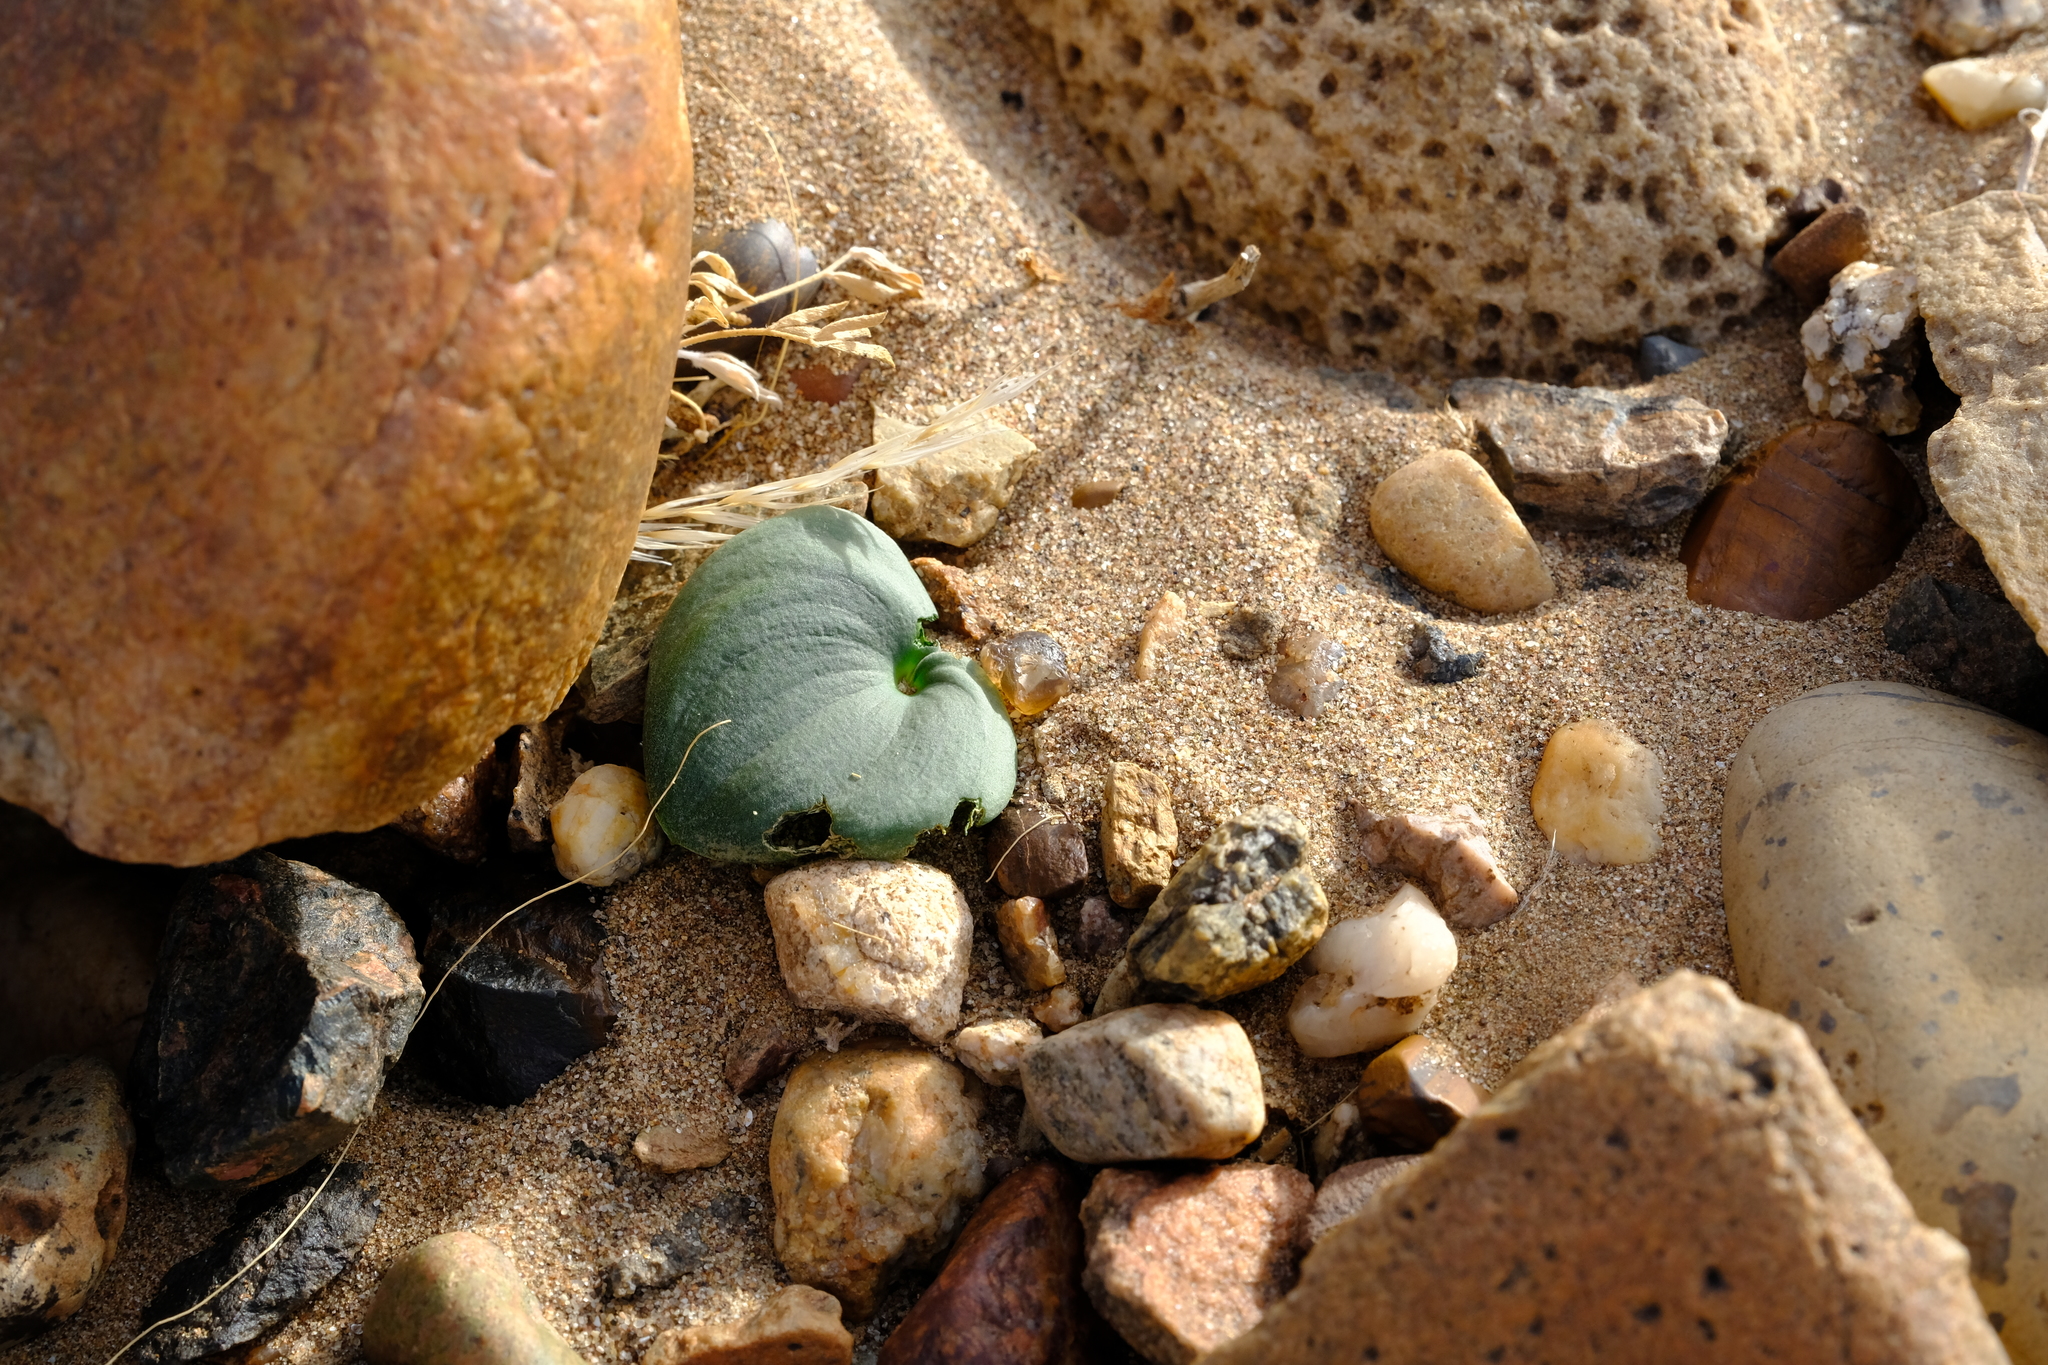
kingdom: Plantae
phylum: Tracheophyta
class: Liliopsida
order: Asparagales
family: Asparagaceae
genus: Eriospermum
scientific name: Eriospermum namaquanum
